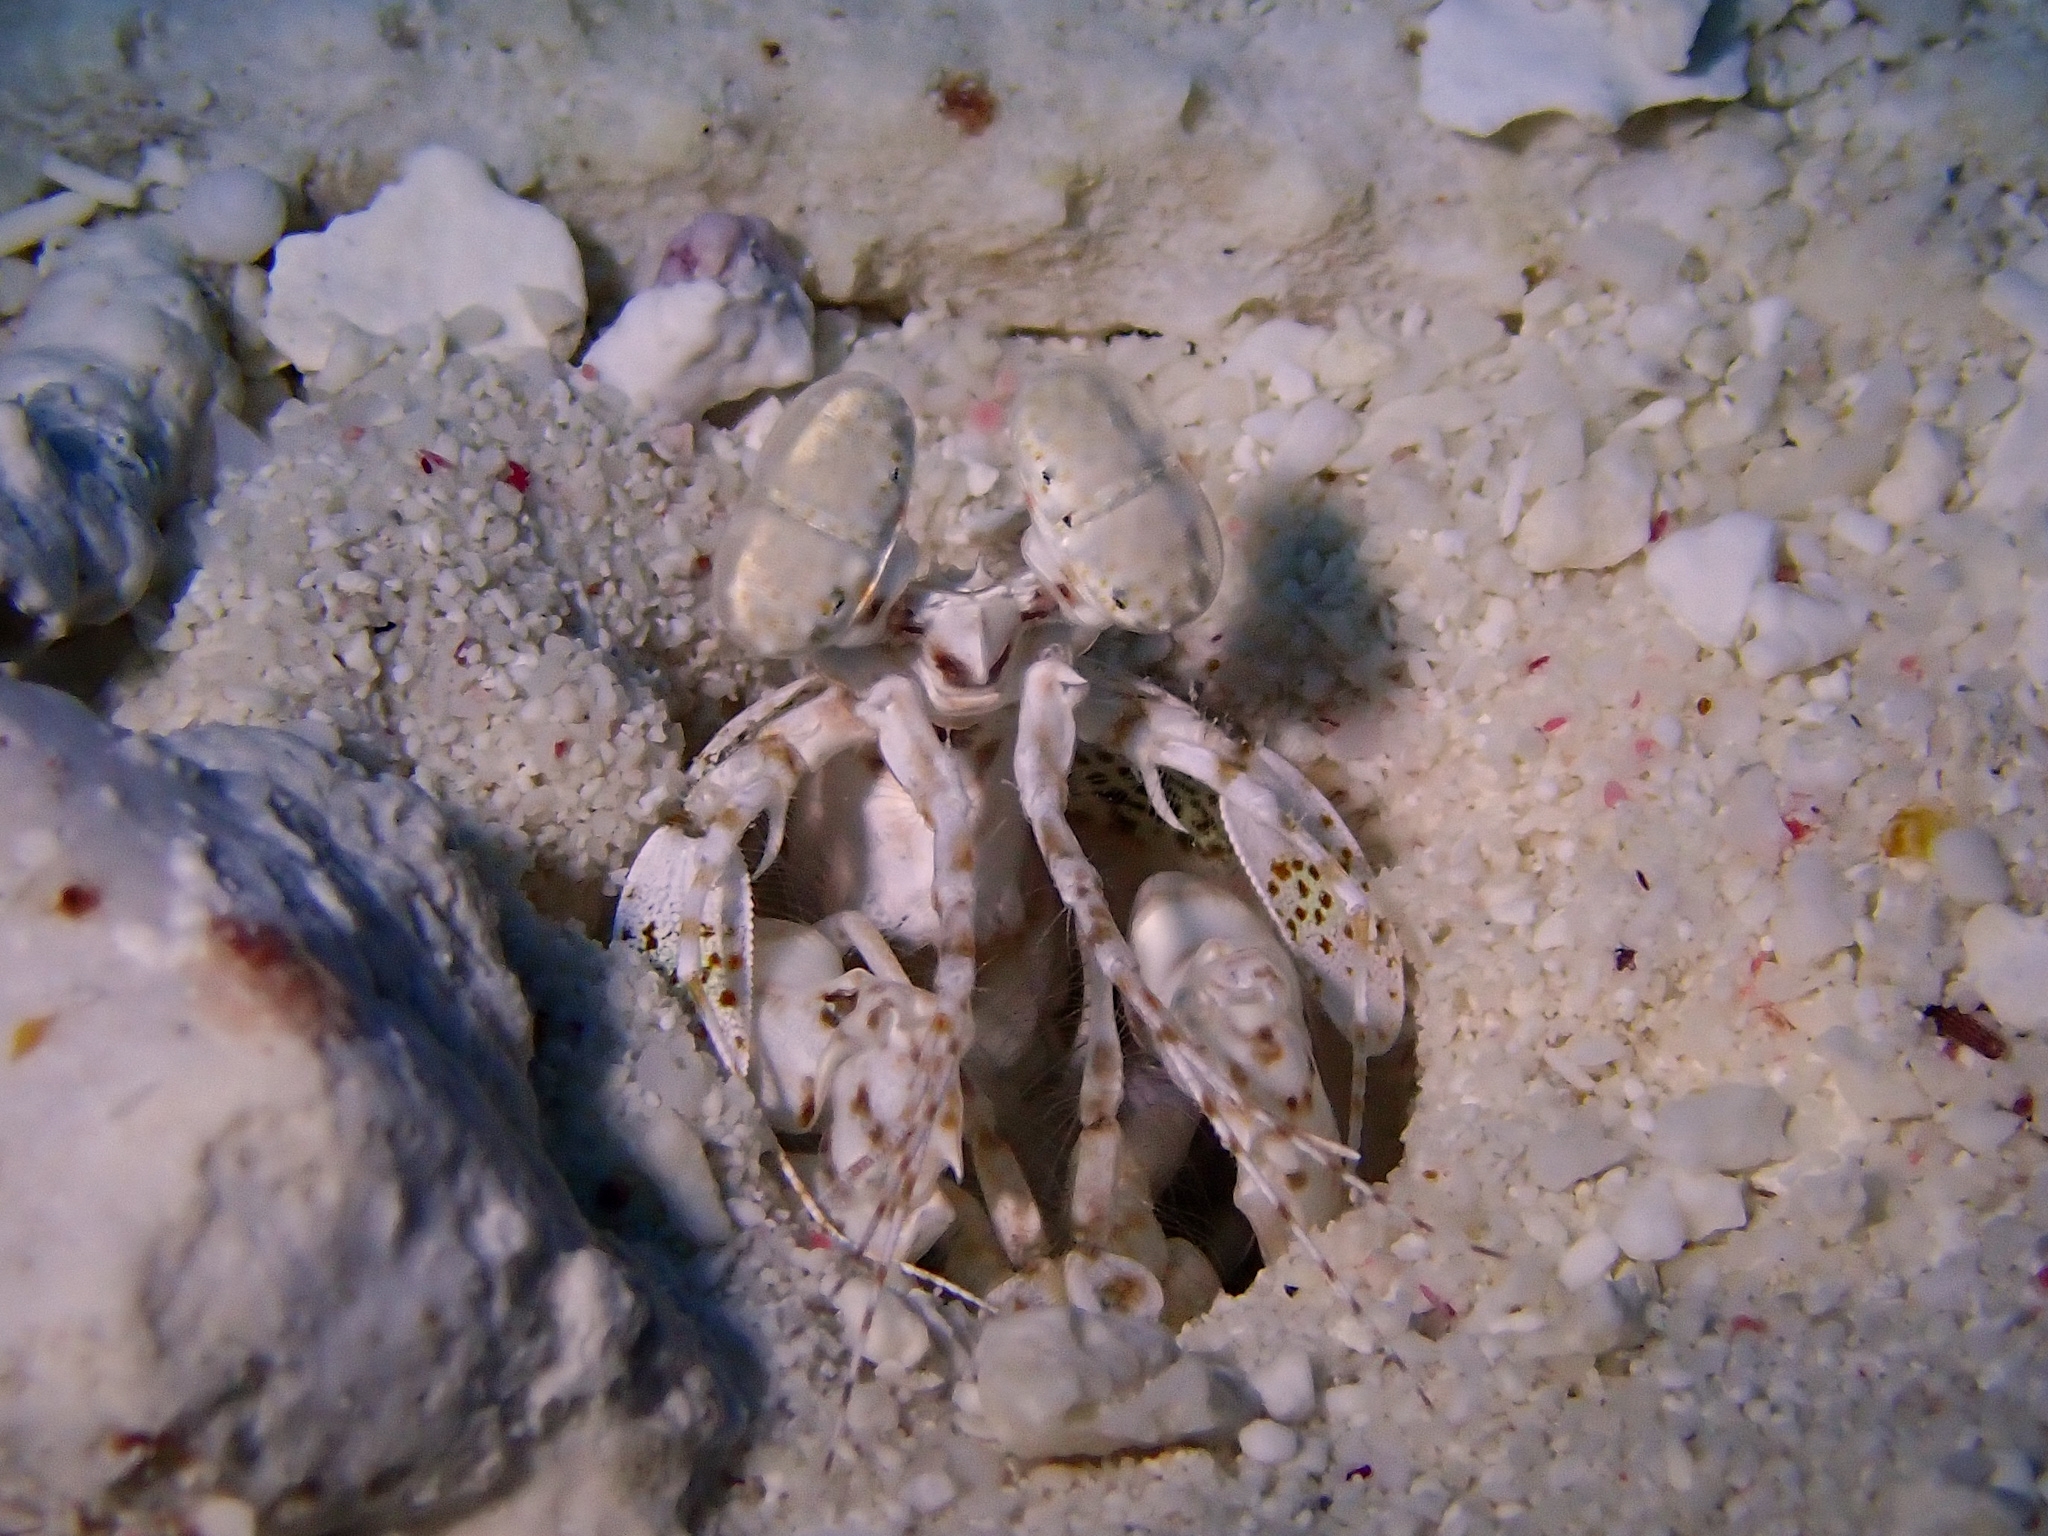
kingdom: Animalia
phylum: Arthropoda
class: Malacostraca
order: Stomatopoda
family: Lysiosquillidae
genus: Lysiosquilla
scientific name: Lysiosquilla scabricauda
